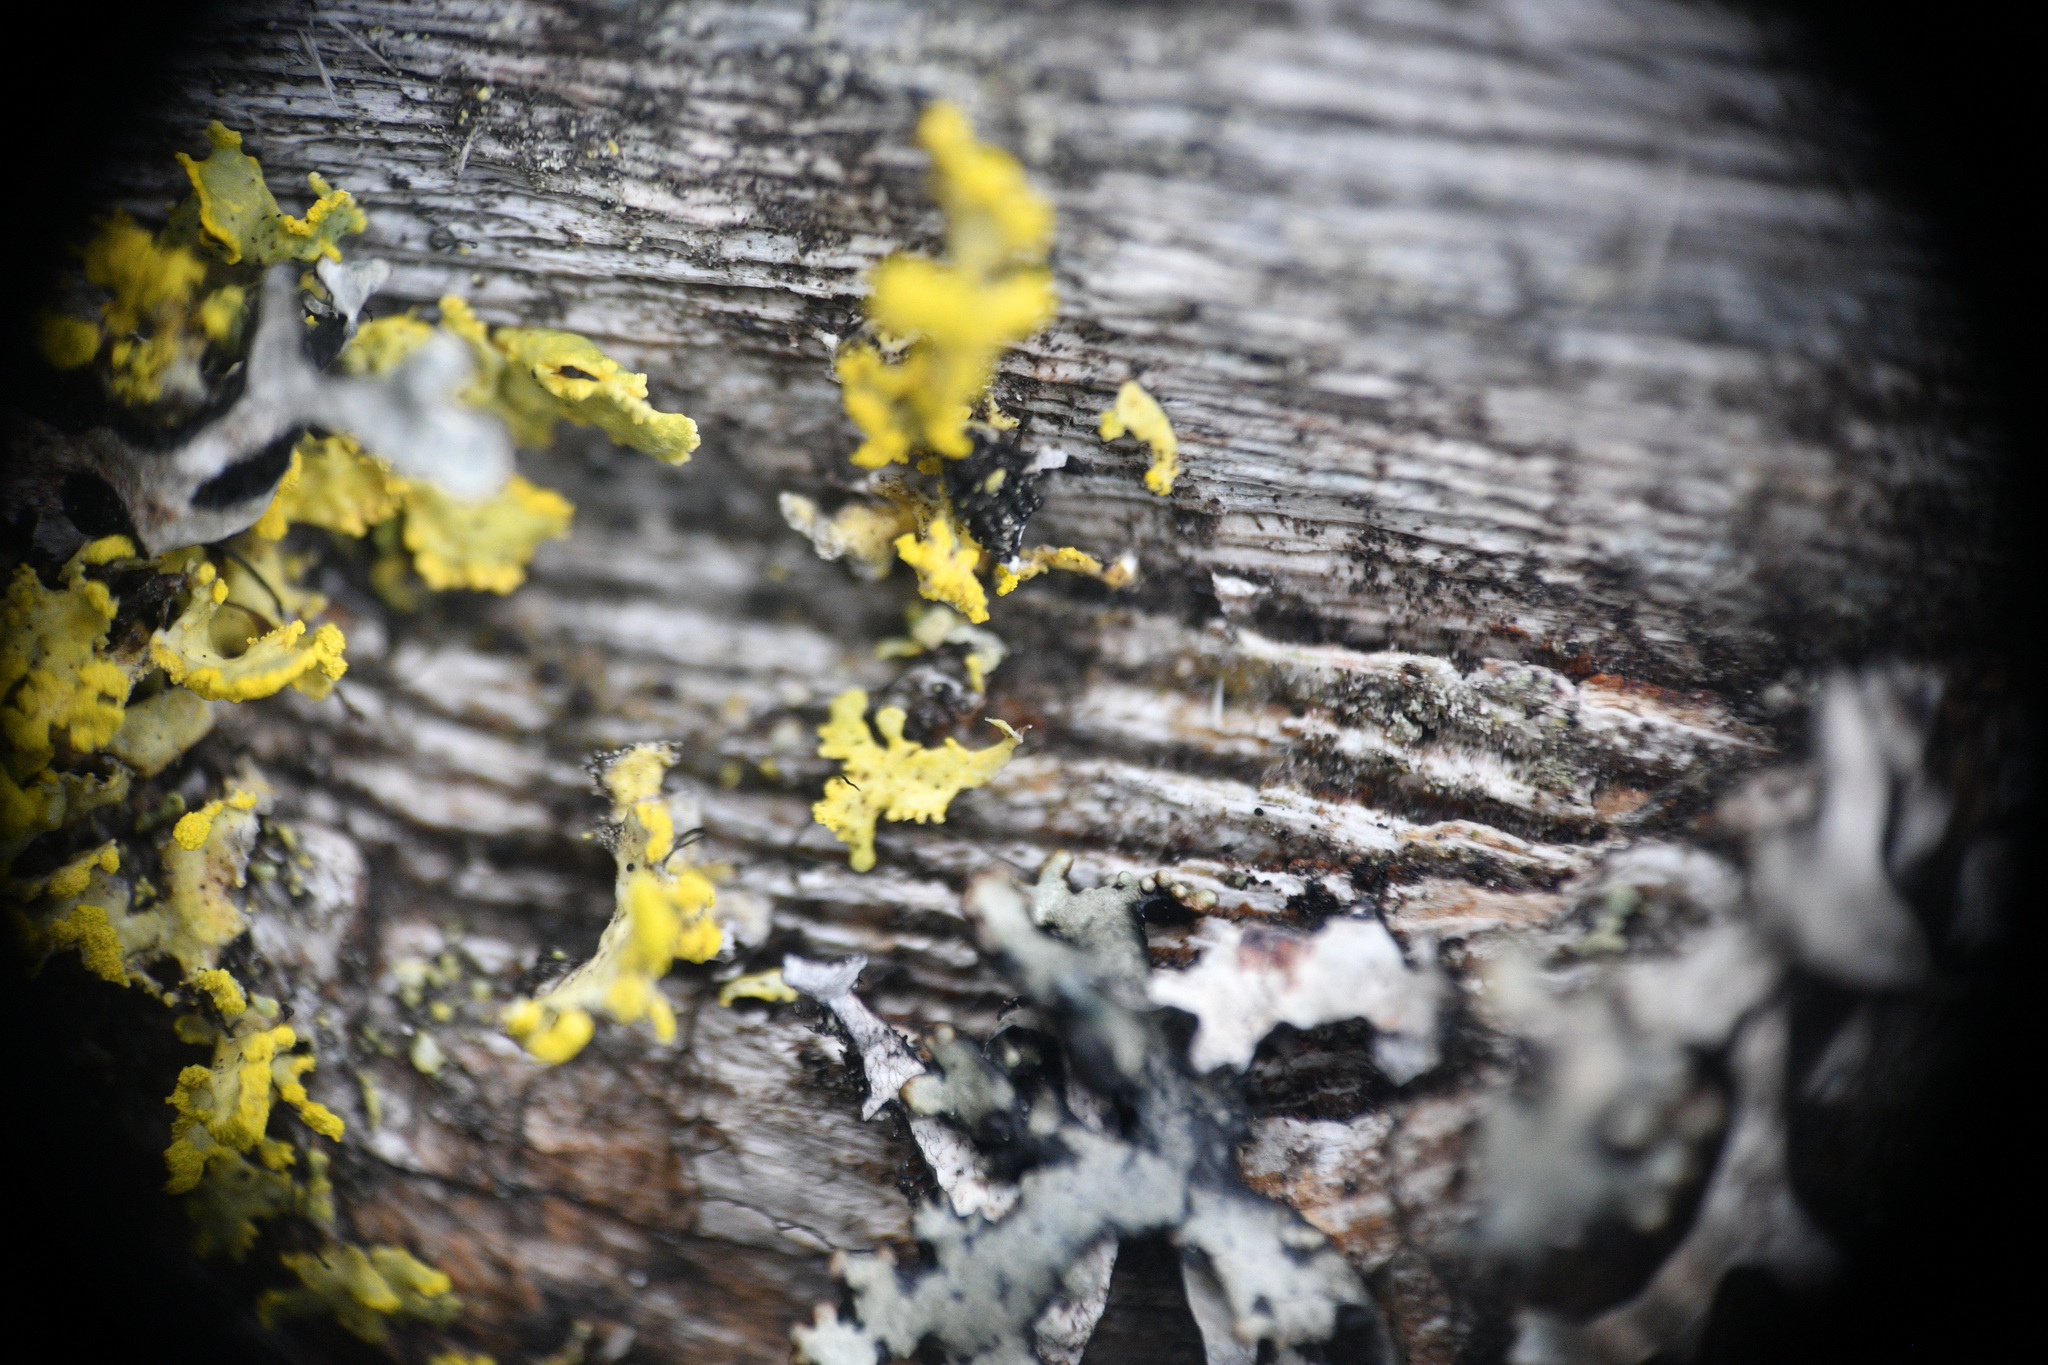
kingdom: Fungi
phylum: Ascomycota
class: Lecanoromycetes
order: Lecanorales
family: Parmeliaceae
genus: Vulpicida
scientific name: Vulpicida pinastri
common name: Powdered sunshine lichen
